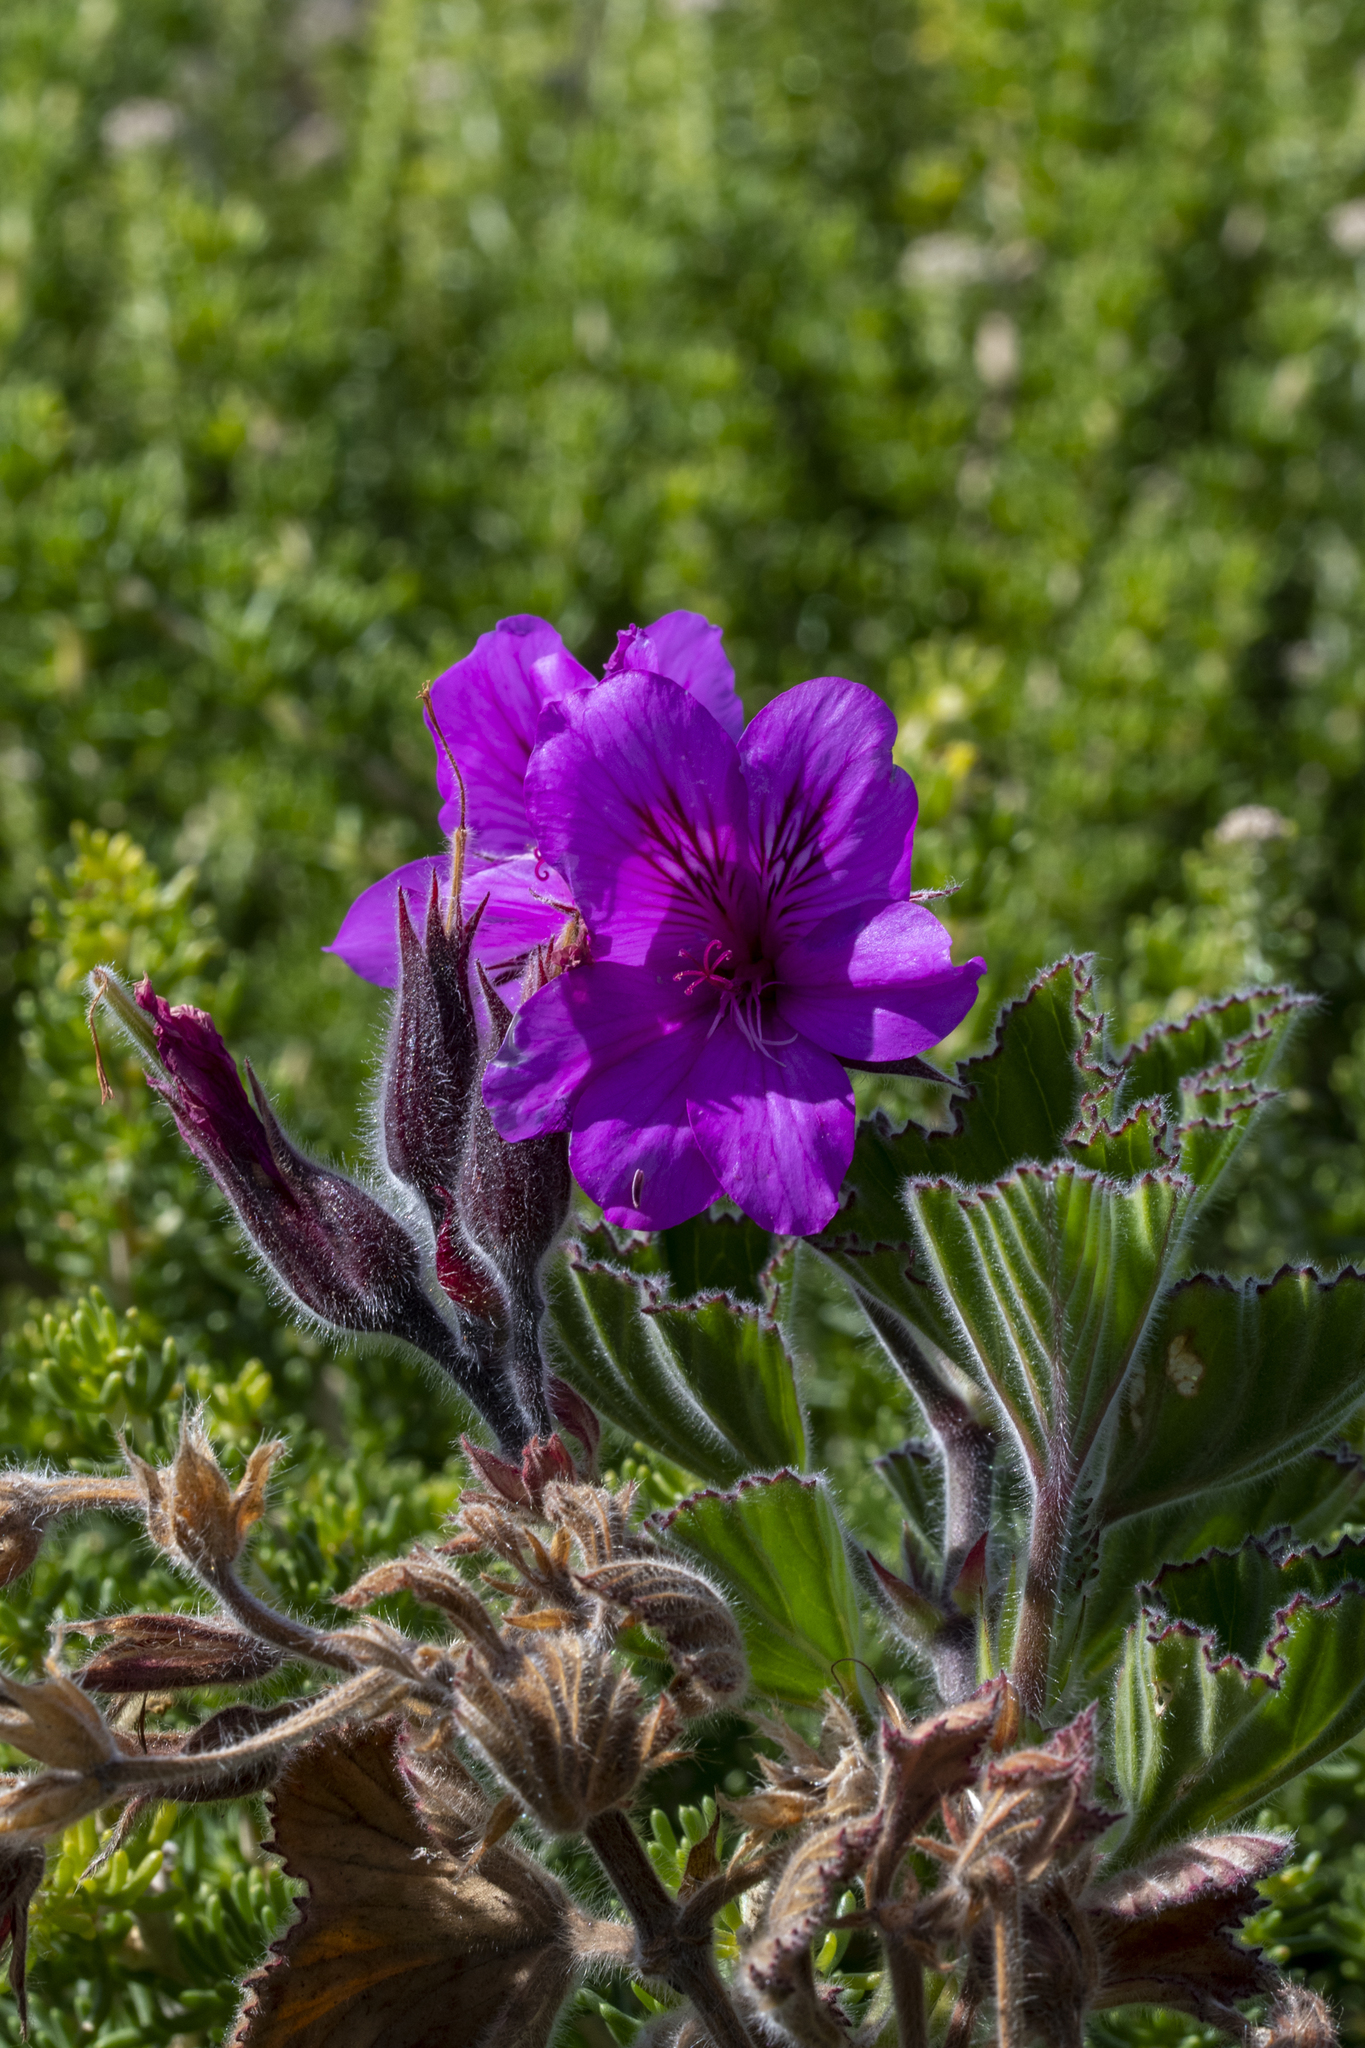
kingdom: Plantae
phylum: Tracheophyta
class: Magnoliopsida
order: Geraniales
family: Geraniaceae
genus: Pelargonium
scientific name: Pelargonium cucullatum
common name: Tree pelargonium
